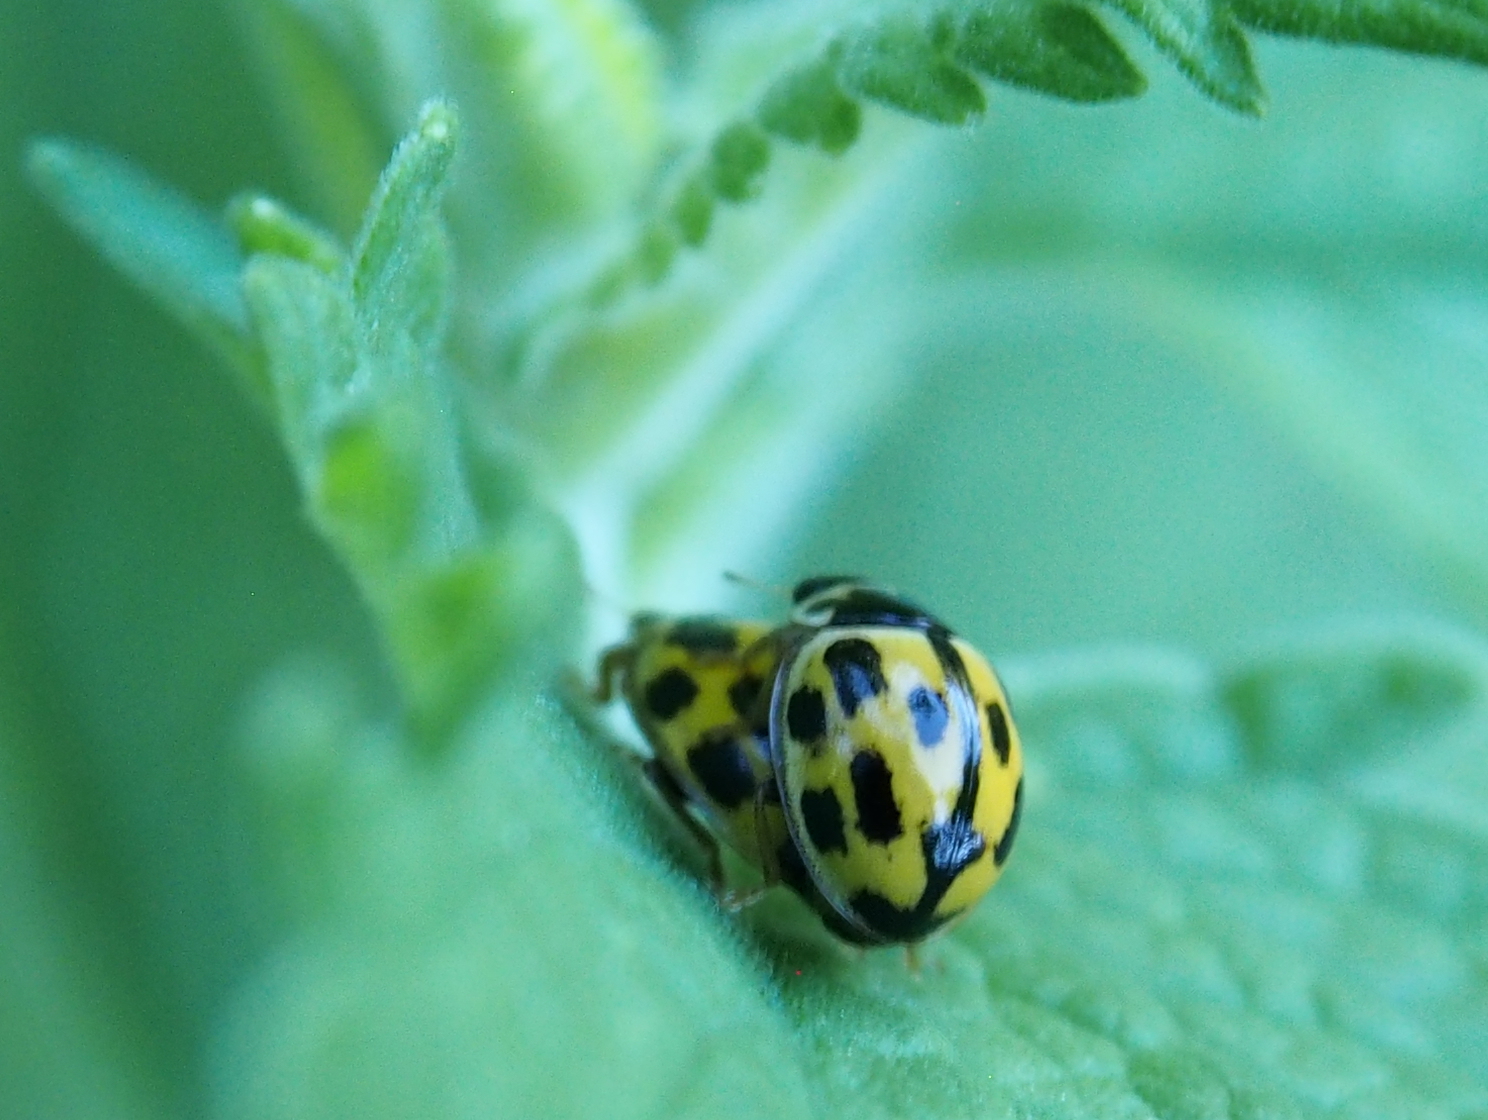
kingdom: Animalia
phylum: Arthropoda
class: Insecta
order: Coleoptera
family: Coccinellidae
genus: Propylaea
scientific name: Propylaea quatuordecimpunctata
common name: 14-spotted ladybird beetle
